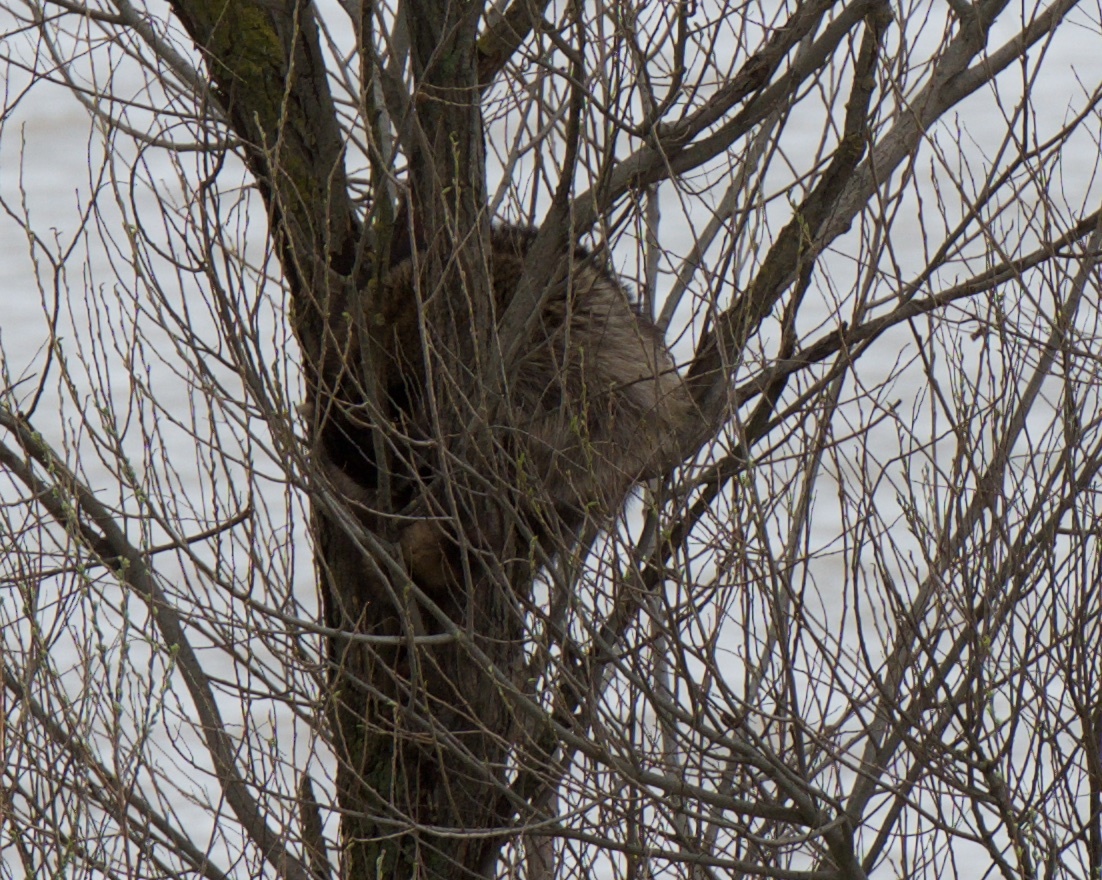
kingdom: Animalia
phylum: Chordata
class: Mammalia
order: Carnivora
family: Procyonidae
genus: Procyon
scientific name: Procyon lotor
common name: Raccoon
